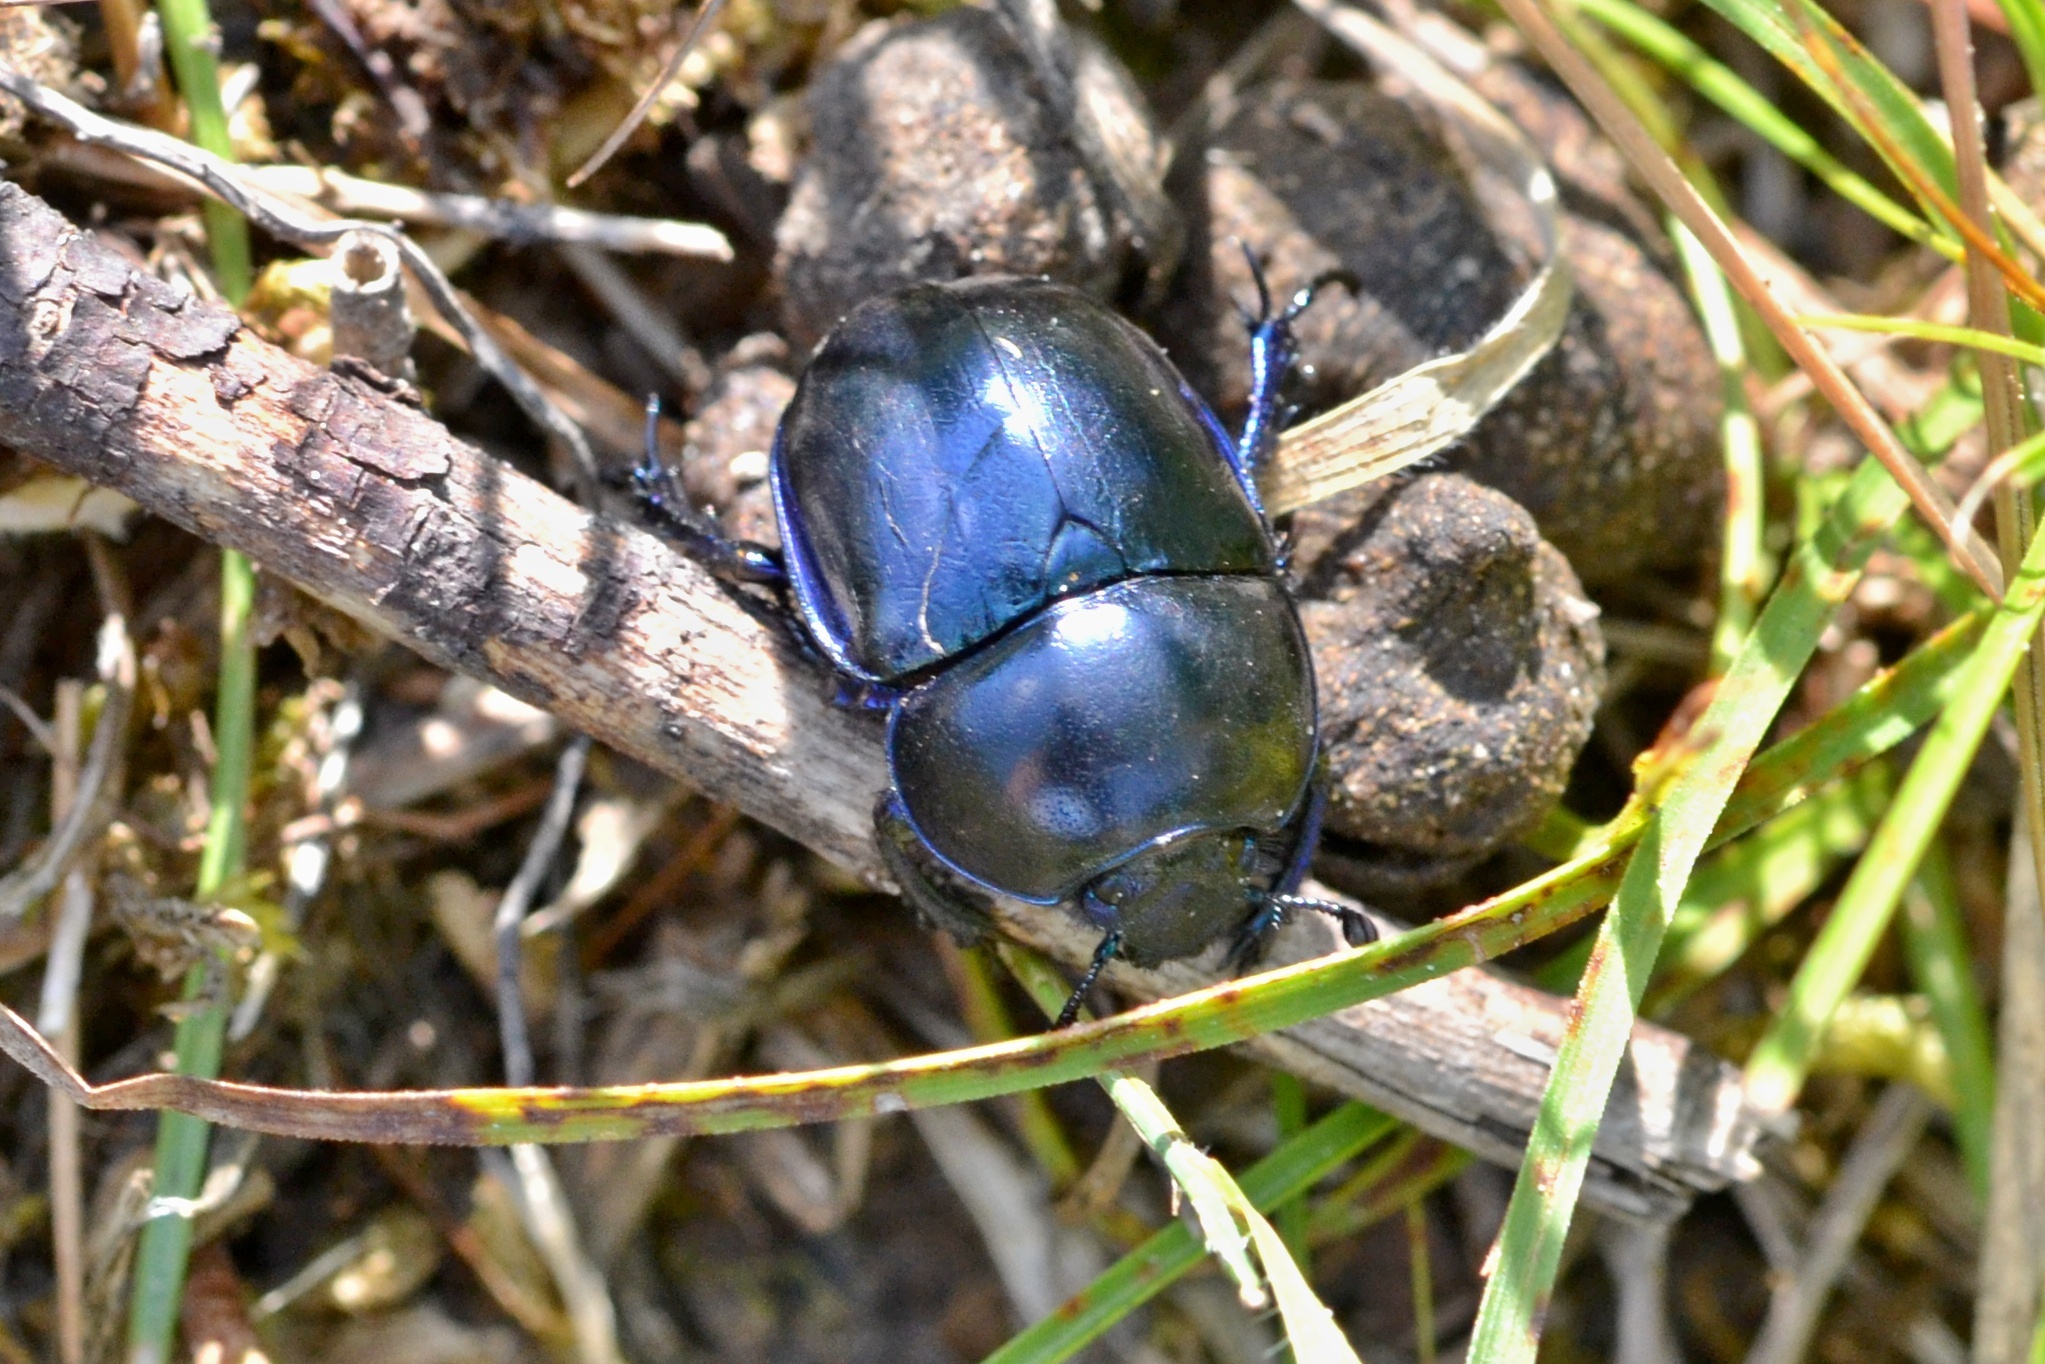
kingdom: Animalia
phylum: Arthropoda
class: Insecta
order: Coleoptera
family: Geotrupidae
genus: Trypocopris
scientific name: Trypocopris vernalis
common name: Spring dumbledor
